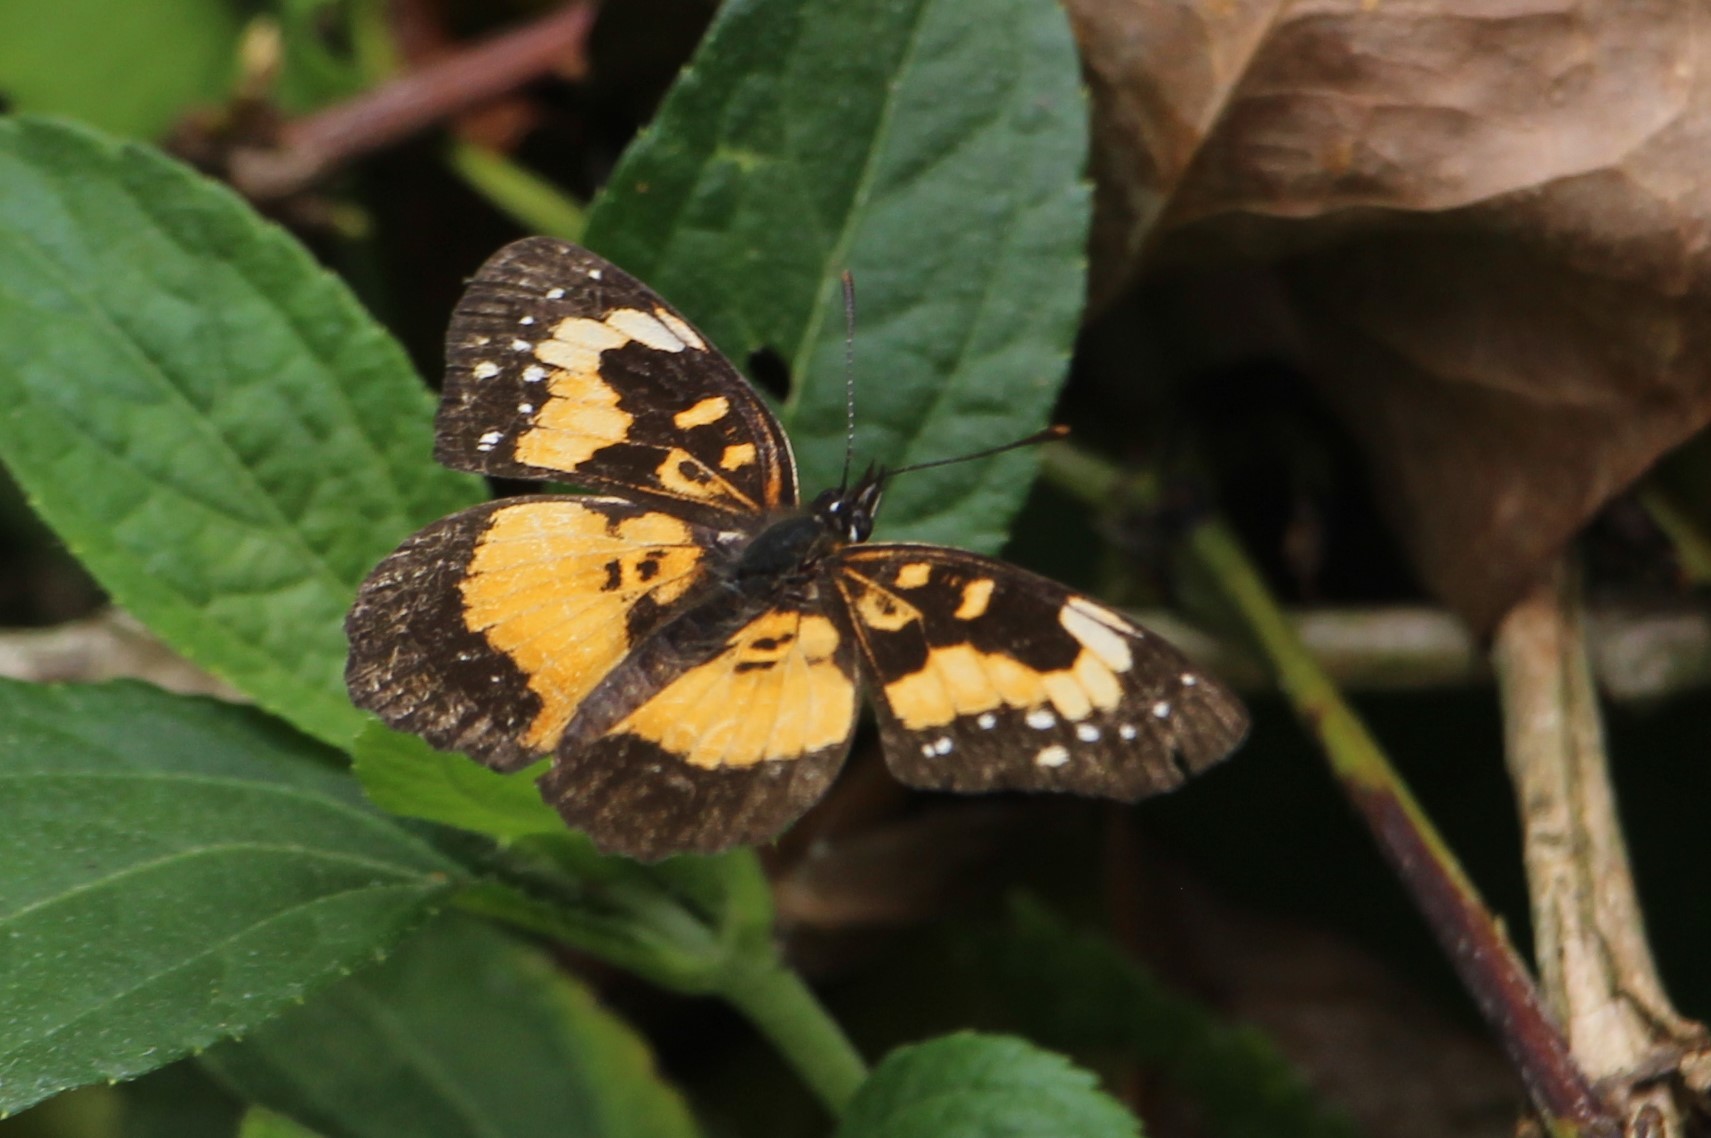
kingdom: Animalia
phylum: Arthropoda
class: Insecta
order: Lepidoptera
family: Nymphalidae
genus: Chlosyne
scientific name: Chlosyne lacinia
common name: Bordered patch
